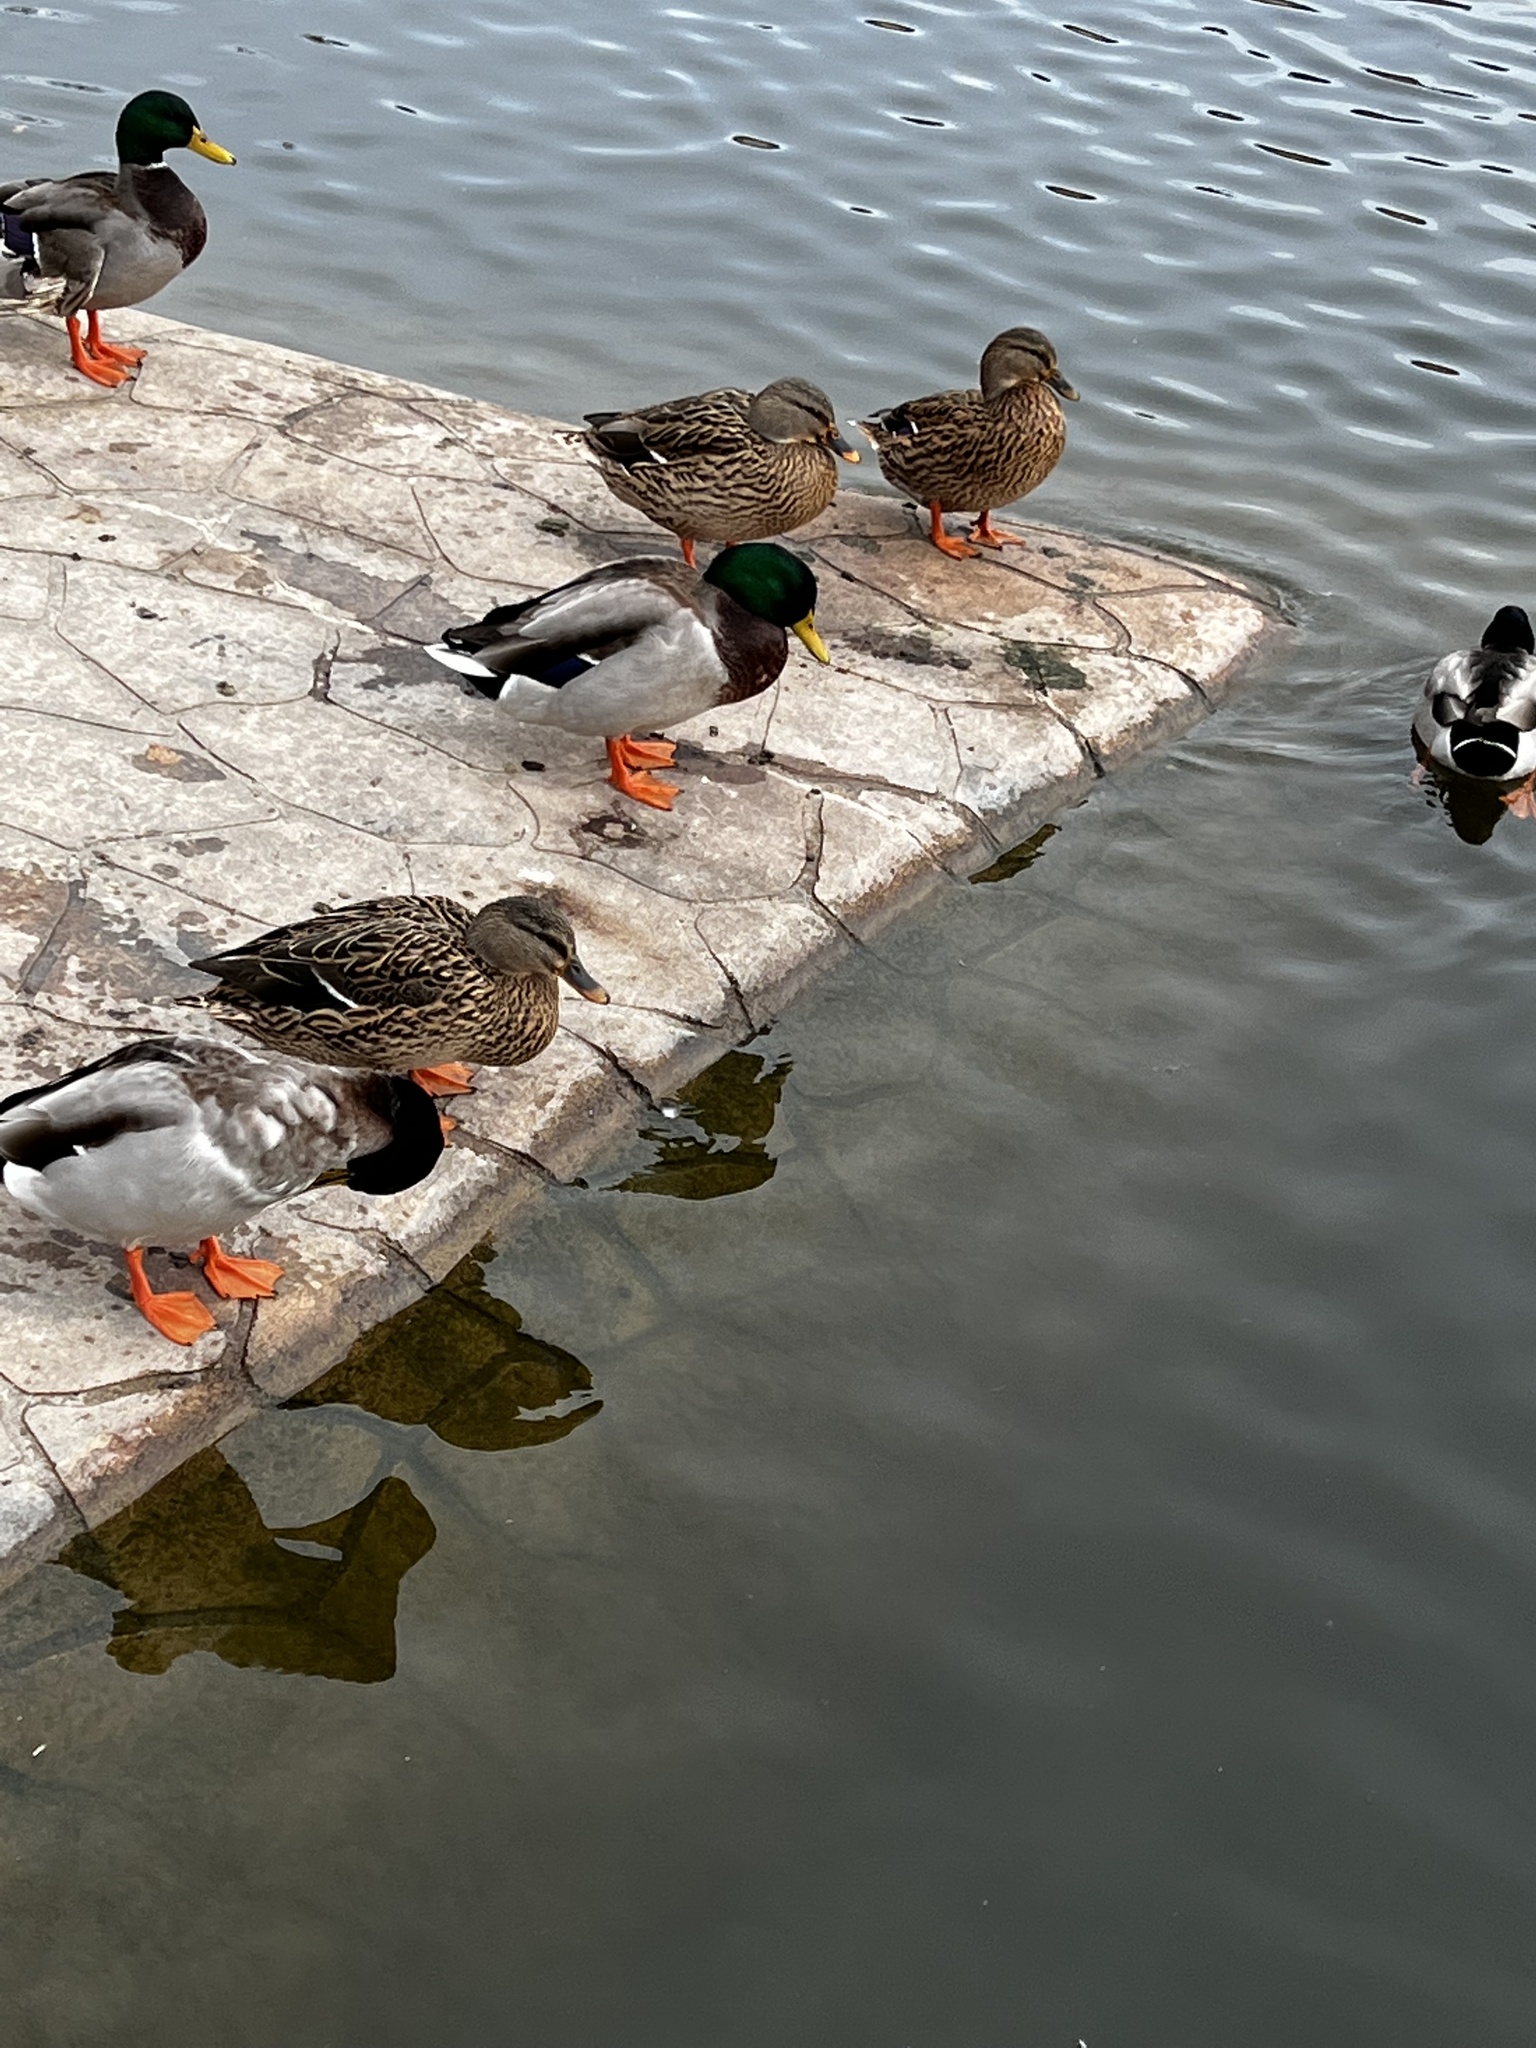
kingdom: Animalia
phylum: Chordata
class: Aves
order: Anseriformes
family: Anatidae
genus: Anas
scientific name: Anas platyrhynchos
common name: Mallard
